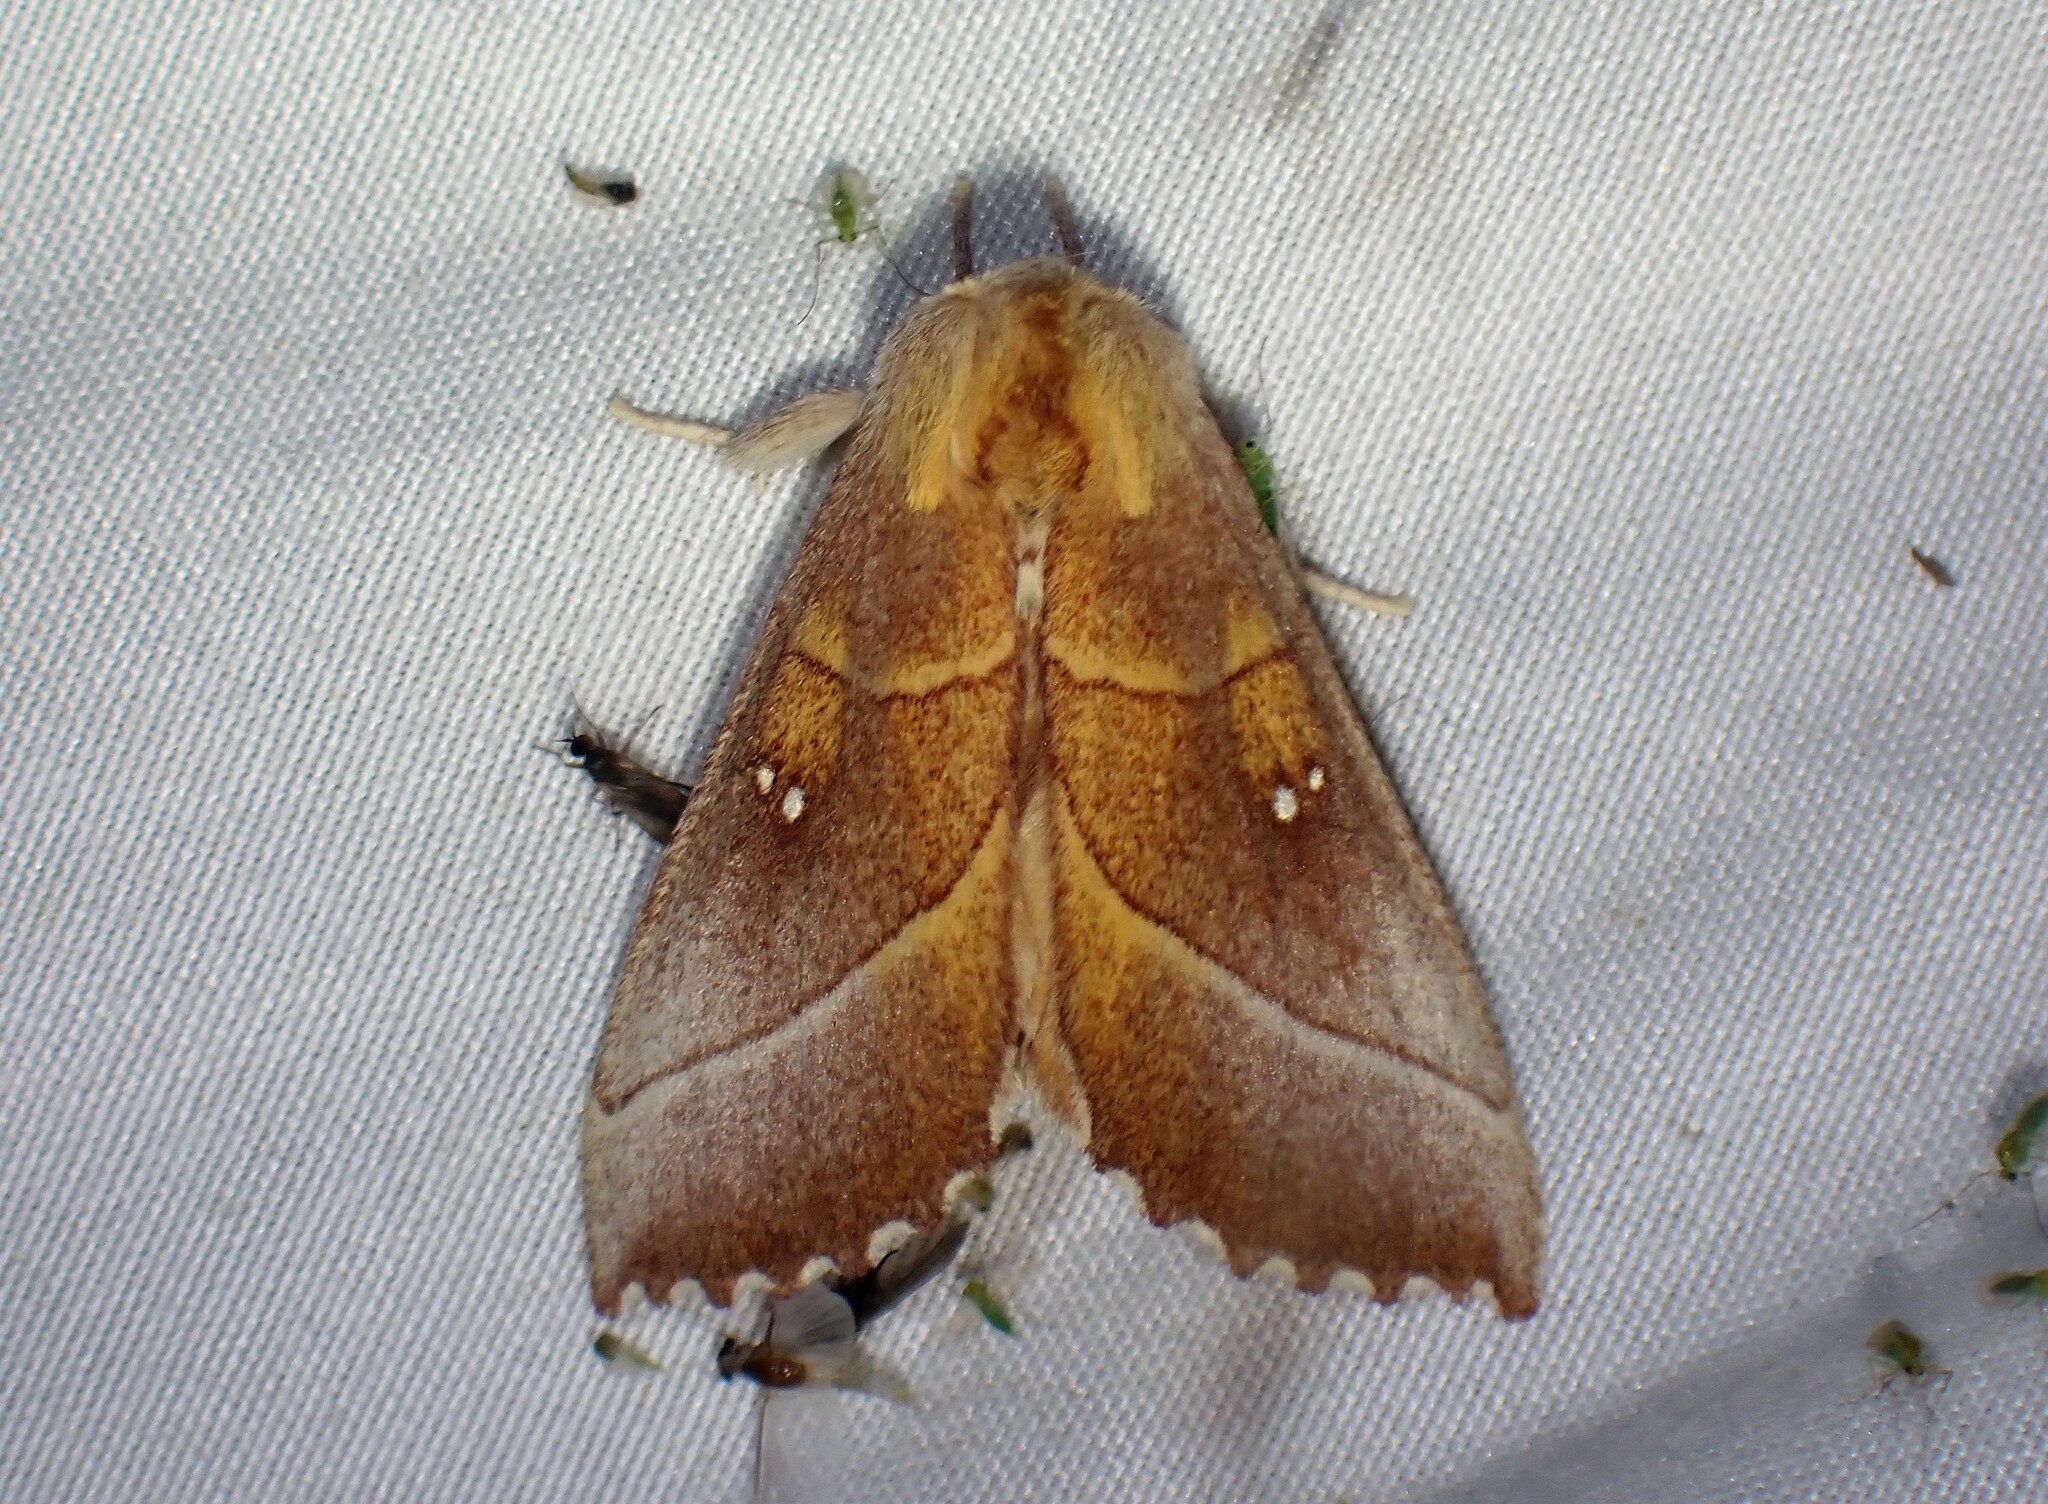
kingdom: Animalia
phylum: Arthropoda
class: Insecta
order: Lepidoptera
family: Notodontidae
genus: Nadata
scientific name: Nadata gibbosa
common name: White-dotted prominent
